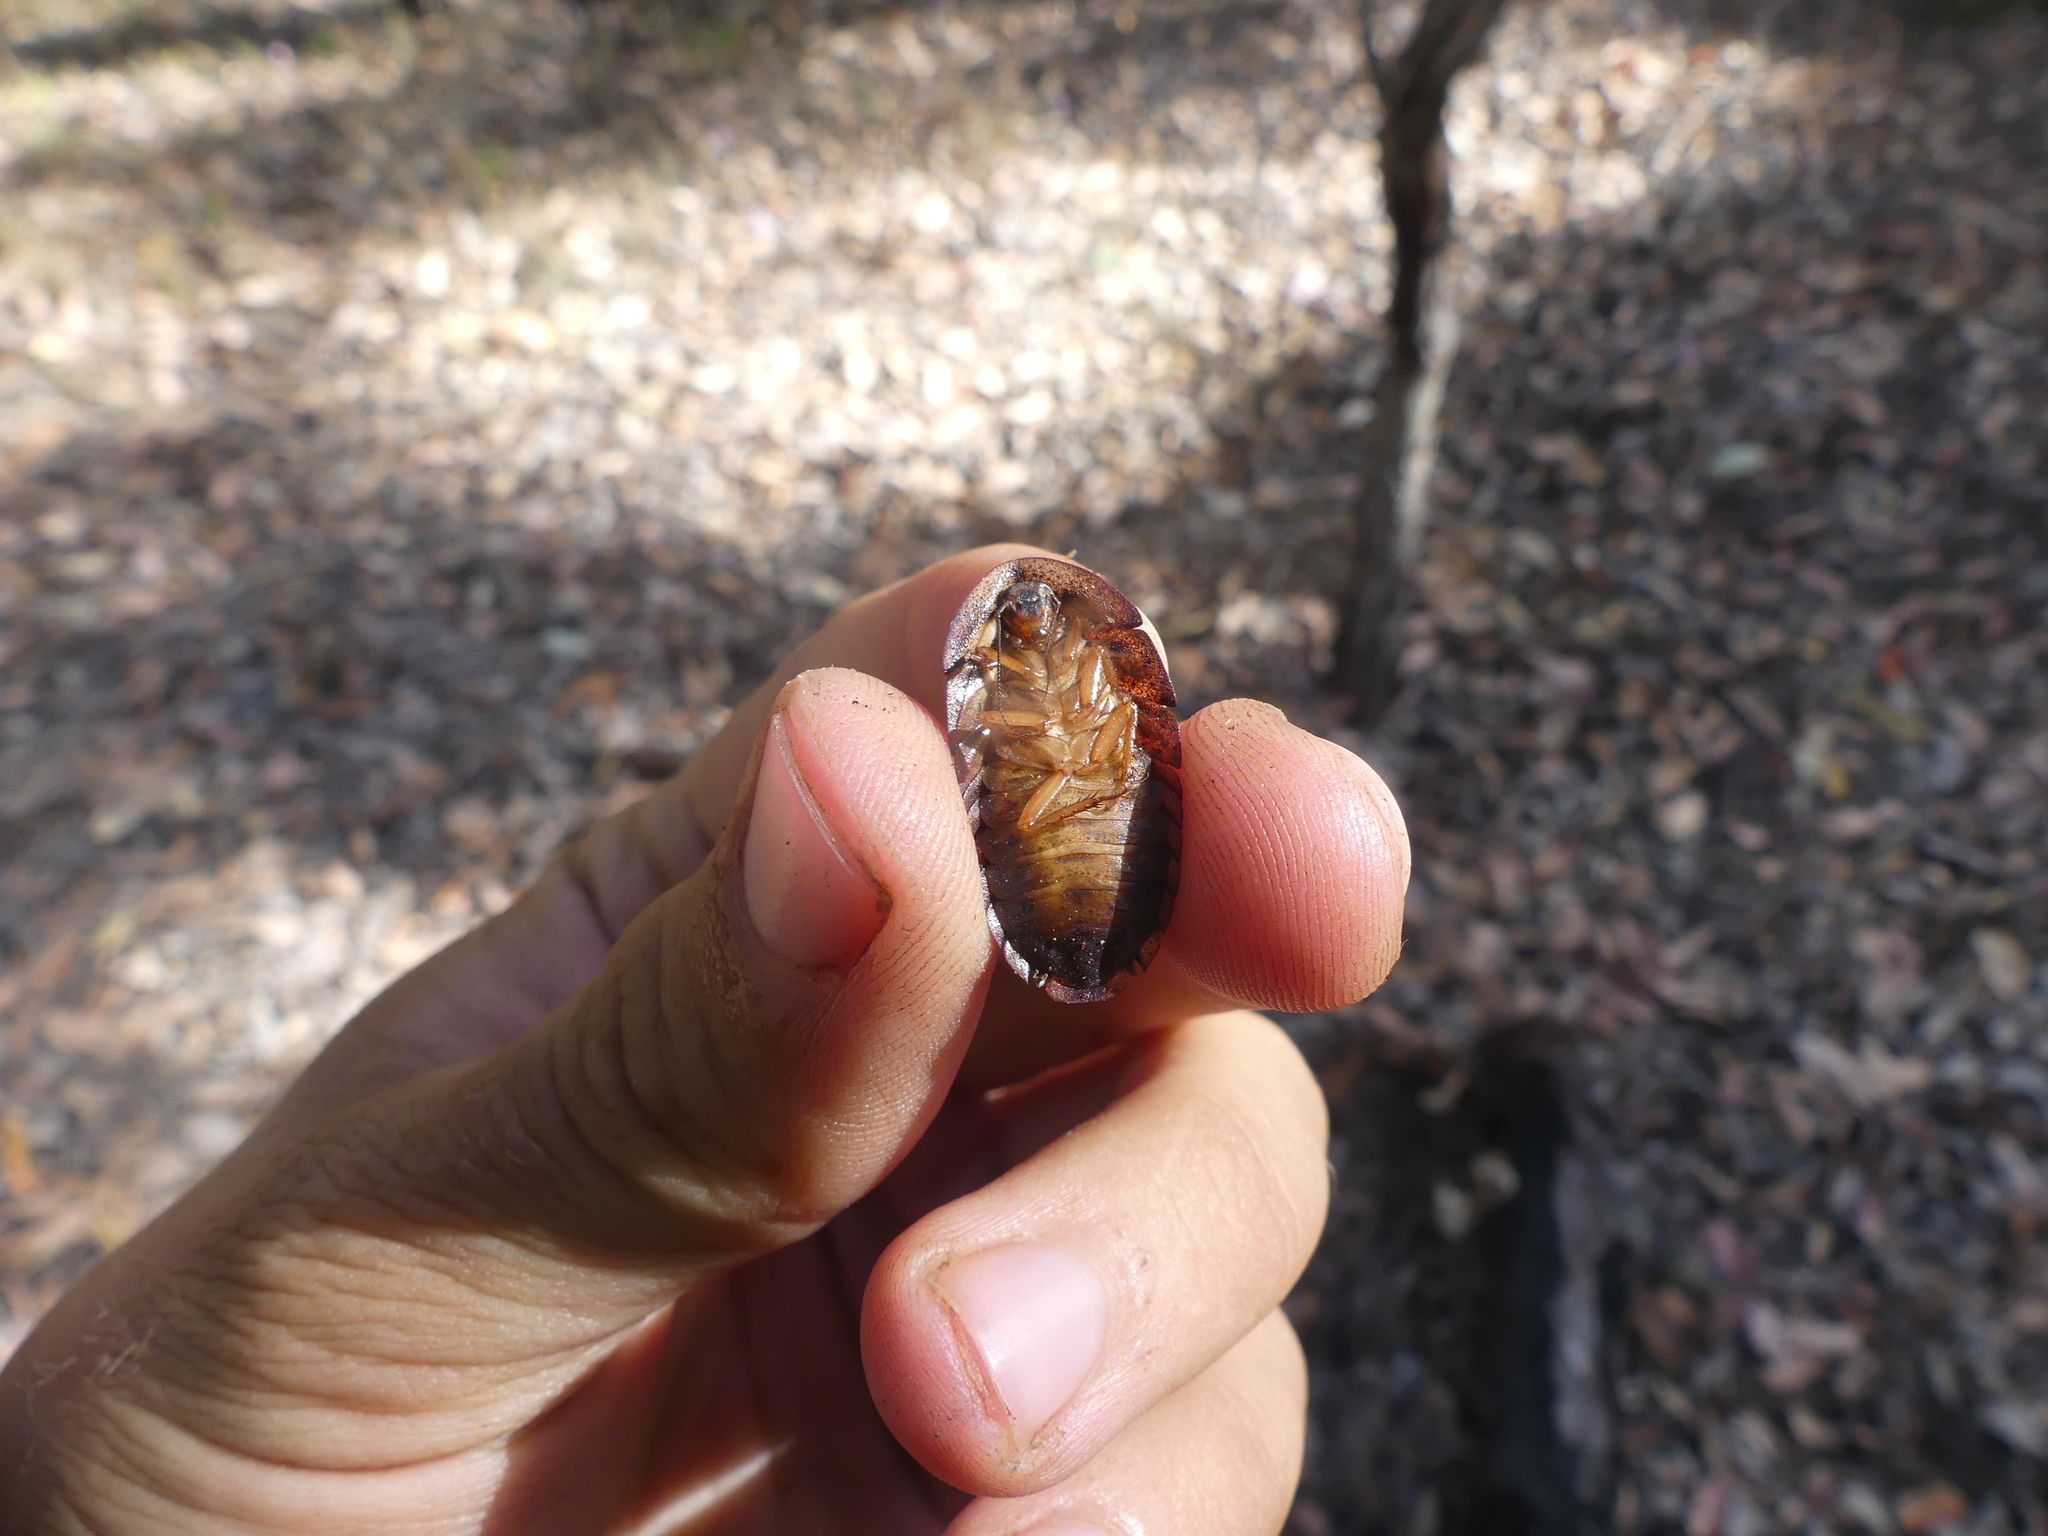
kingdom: Animalia
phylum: Arthropoda
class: Insecta
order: Blattodea
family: Blaberidae
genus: Laxta
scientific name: Laxta rieki
